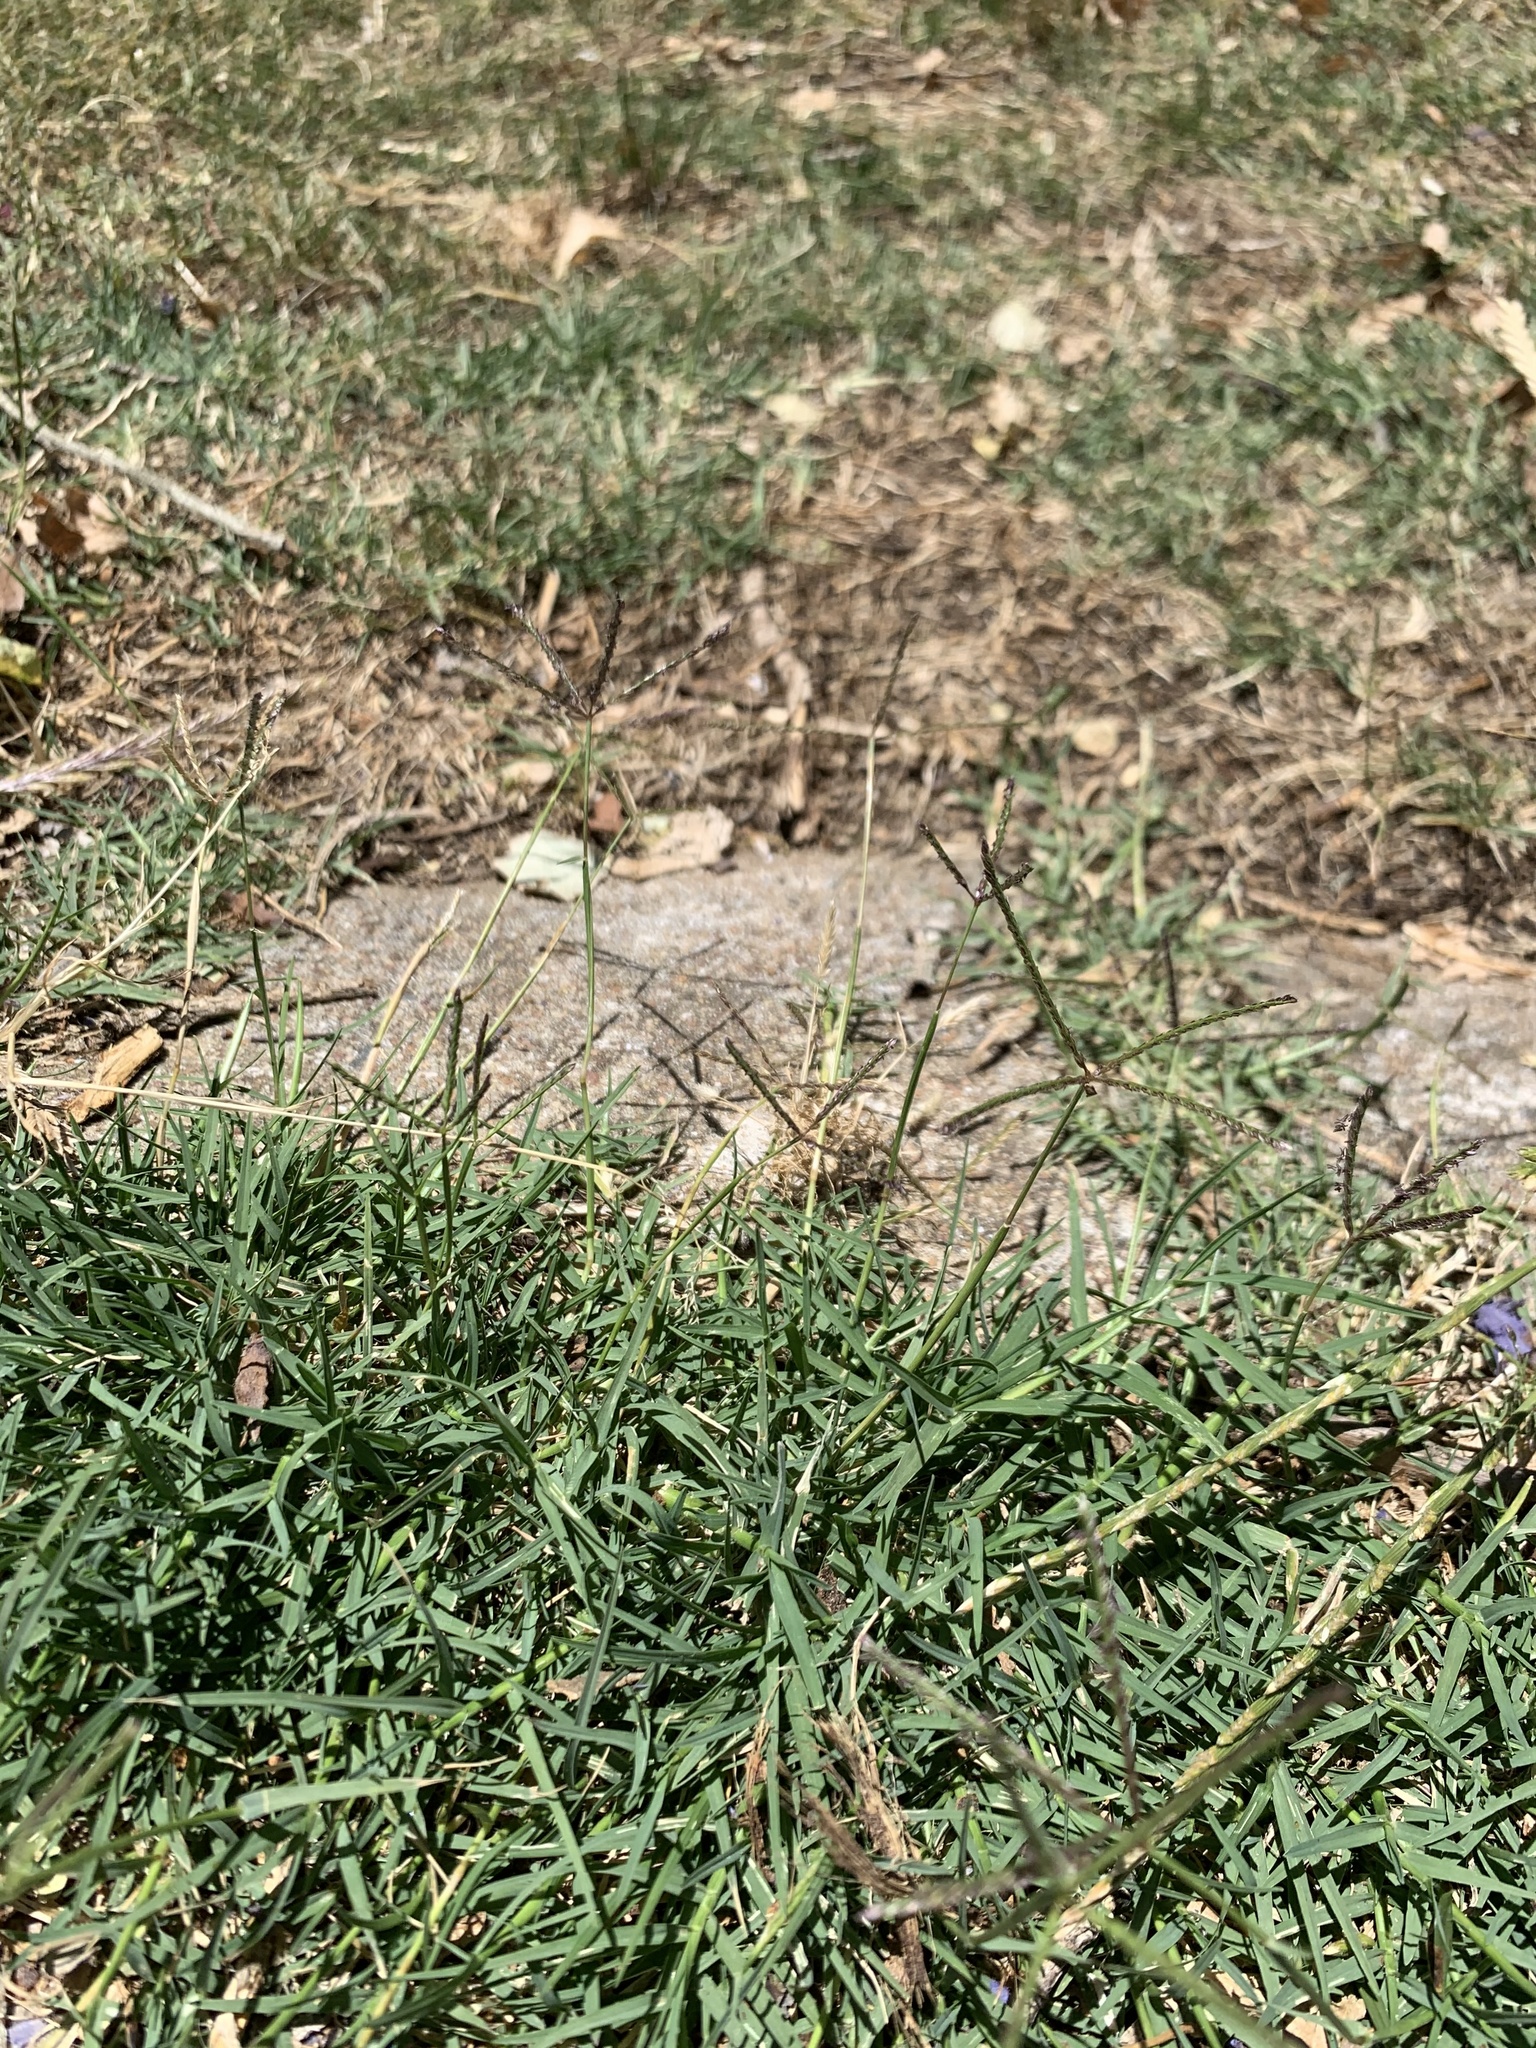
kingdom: Plantae
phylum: Tracheophyta
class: Liliopsida
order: Poales
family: Poaceae
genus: Cynodon
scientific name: Cynodon dactylon
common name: Bermuda grass
